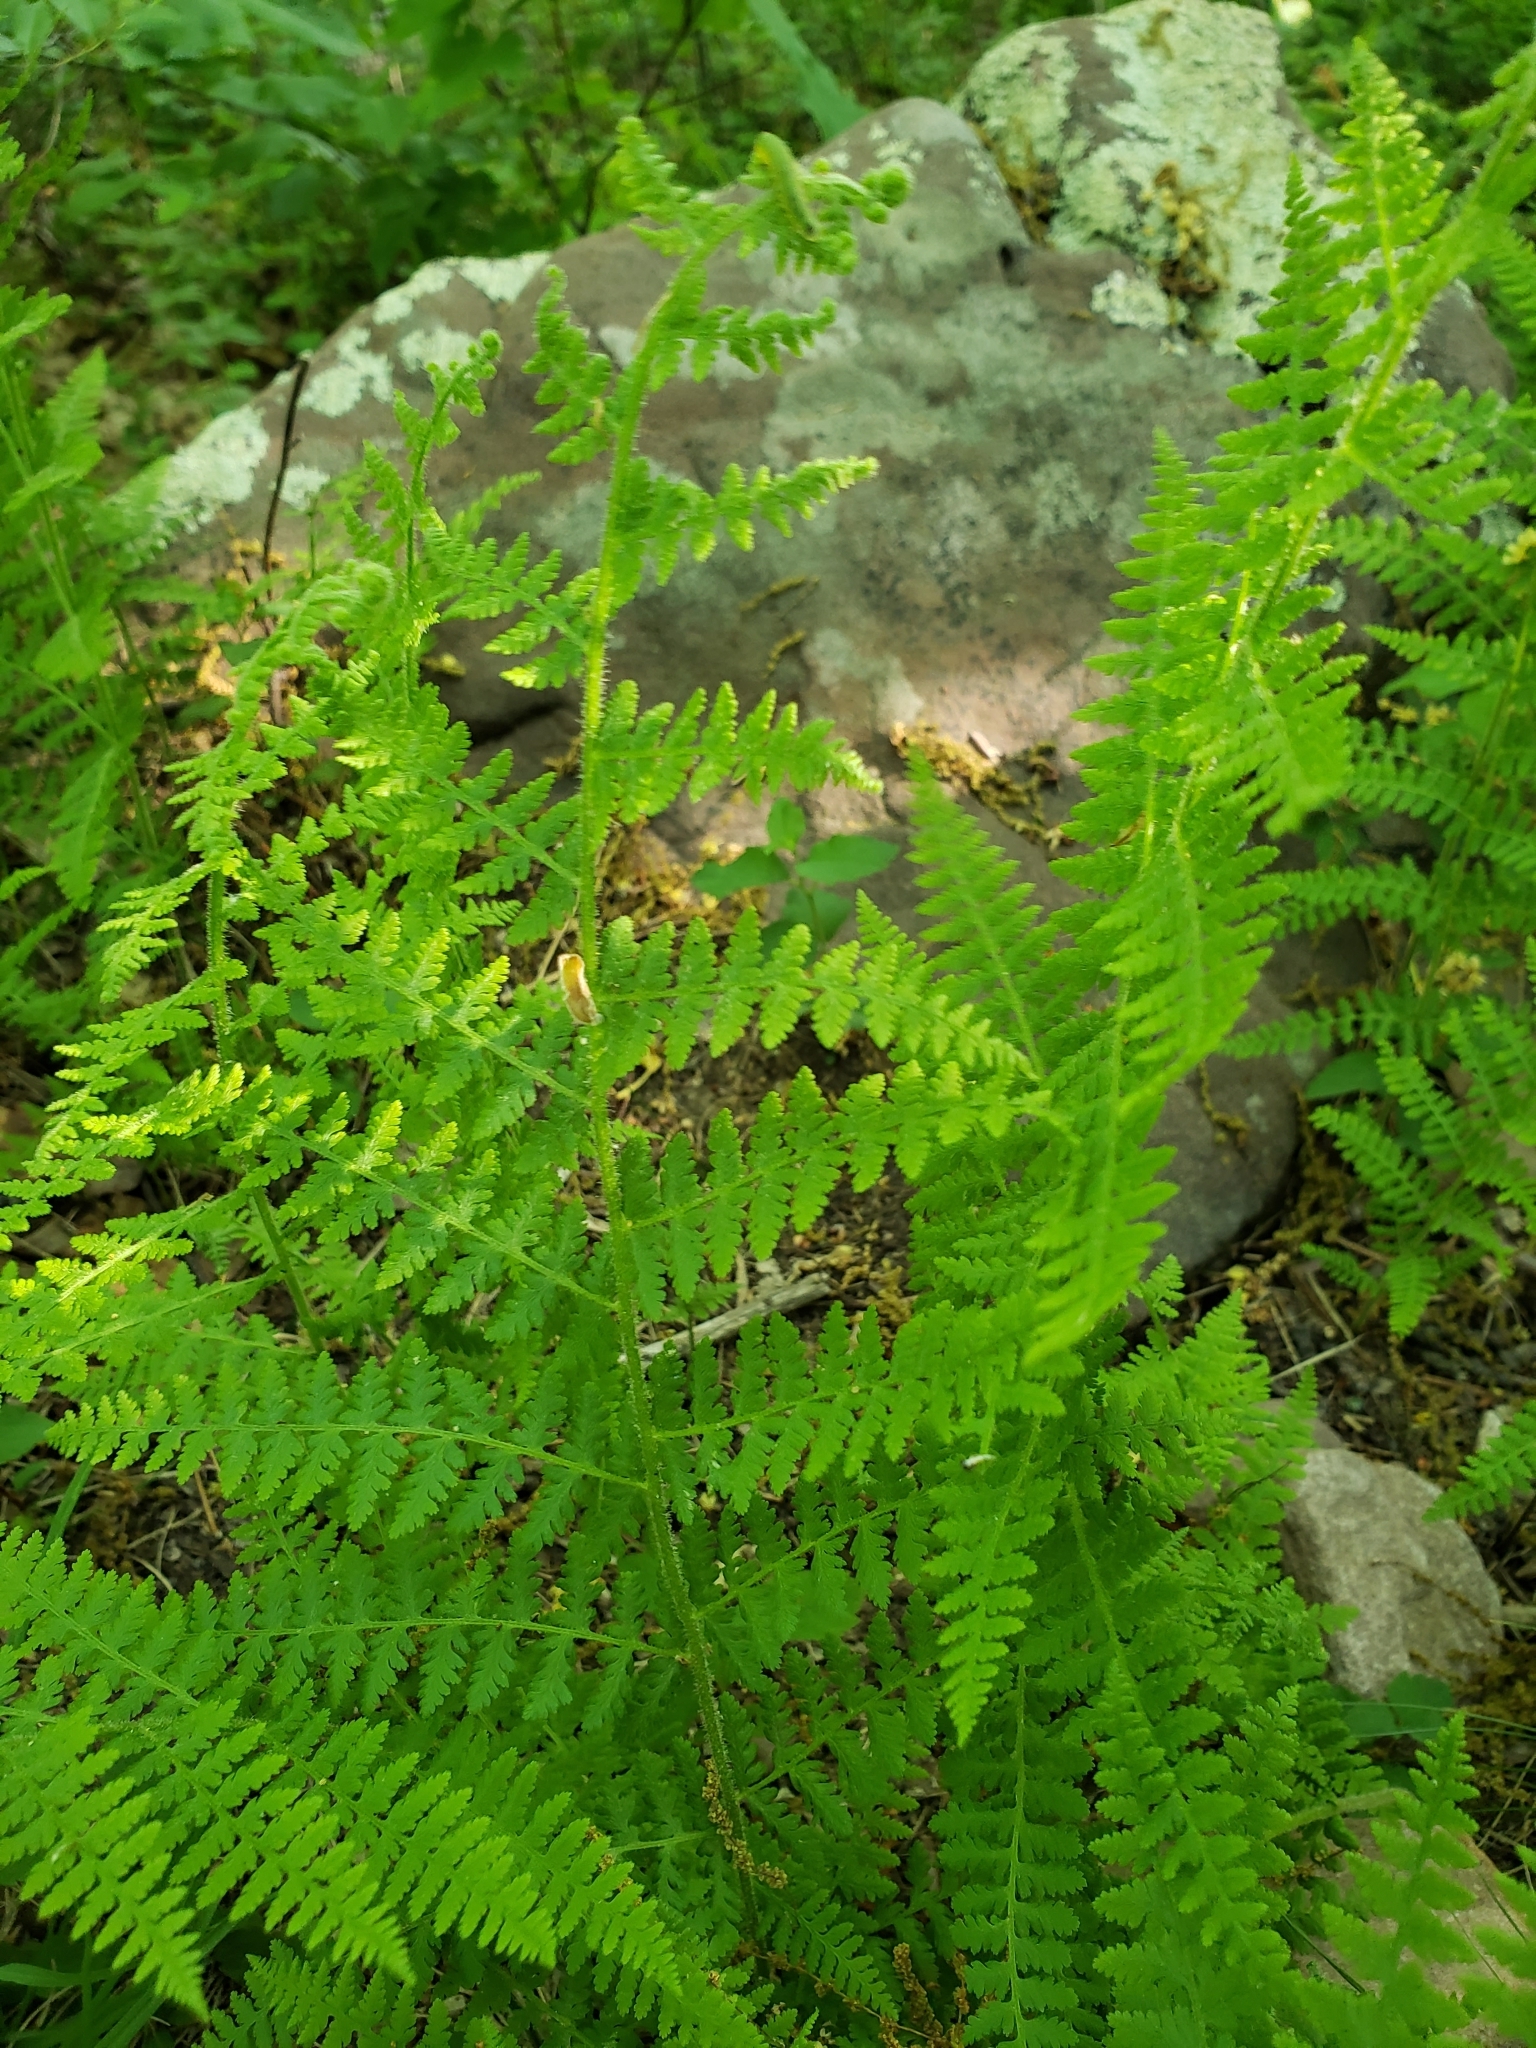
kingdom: Plantae
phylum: Tracheophyta
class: Polypodiopsida
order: Polypodiales
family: Dennstaedtiaceae
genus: Sitobolium
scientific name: Sitobolium punctilobum
